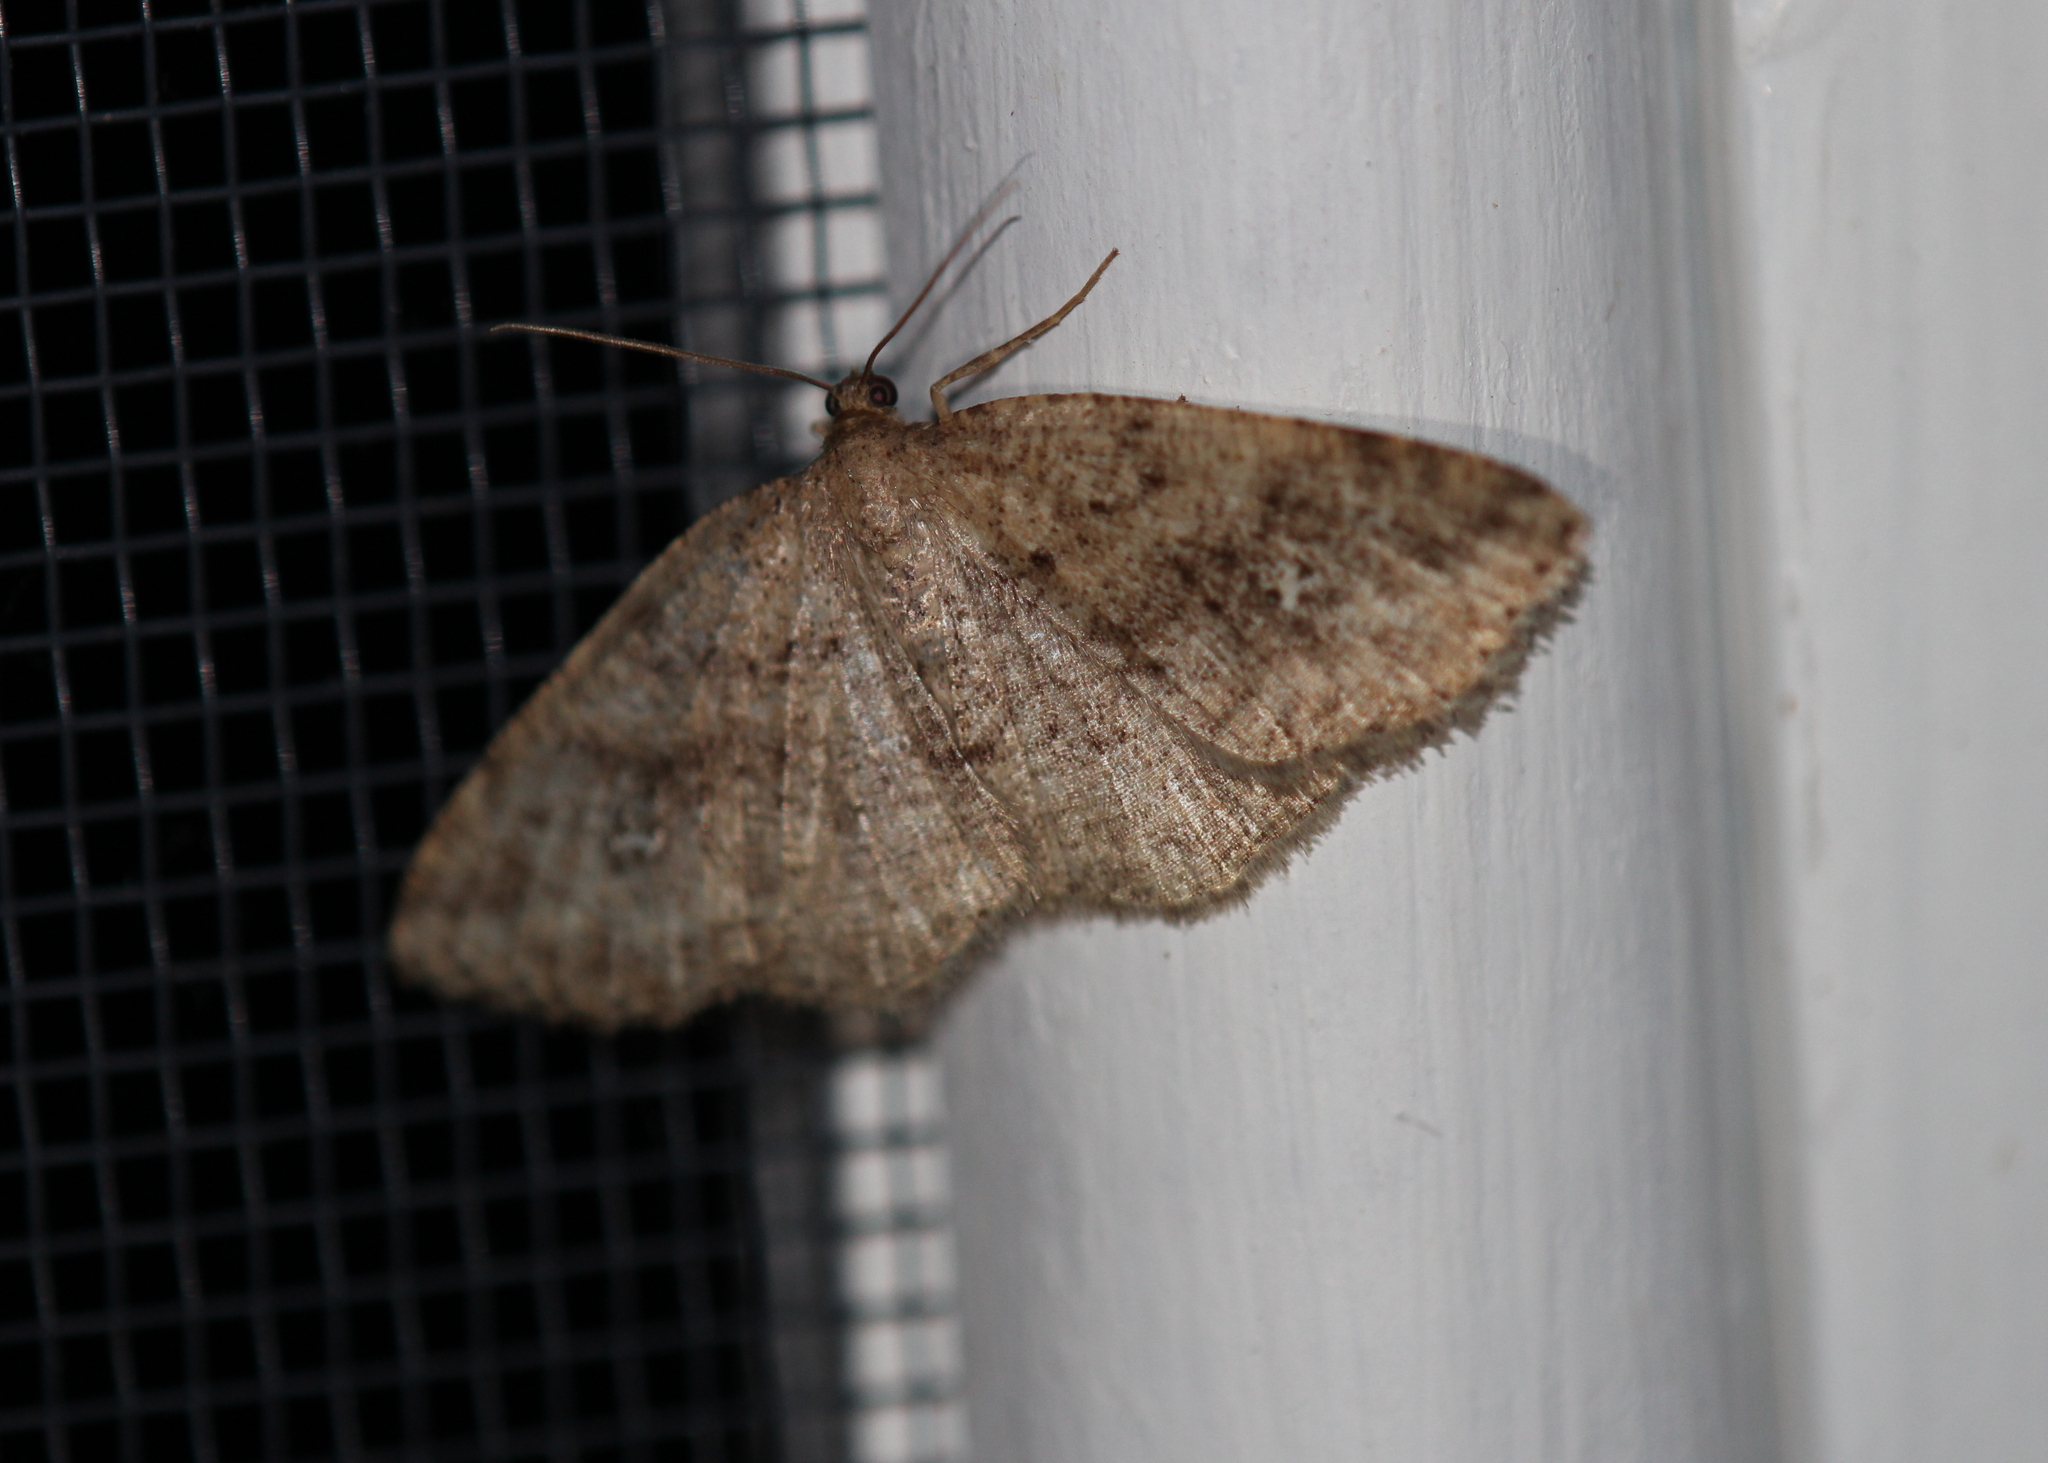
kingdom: Animalia
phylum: Arthropoda
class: Insecta
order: Lepidoptera
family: Geometridae
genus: Homochlodes
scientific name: Homochlodes fritillaria
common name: Pale homochlodes
